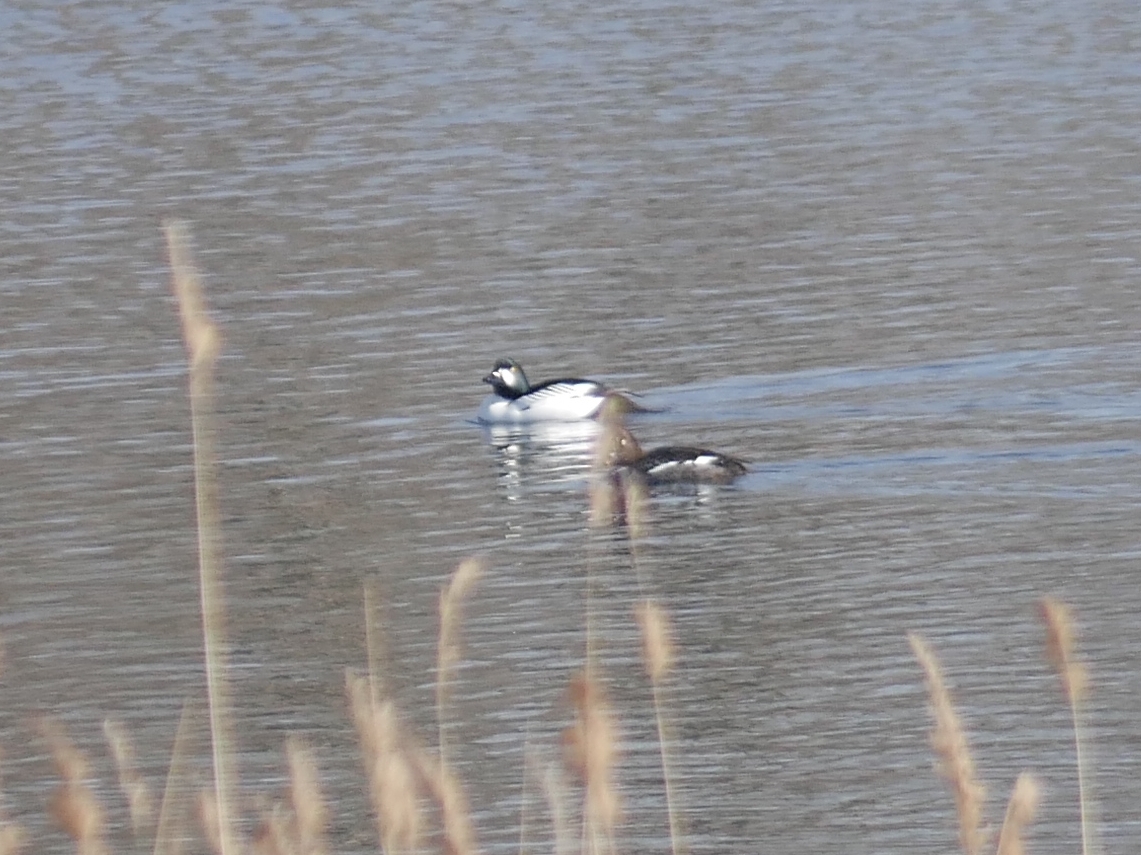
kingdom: Animalia
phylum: Chordata
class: Aves
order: Anseriformes
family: Anatidae
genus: Bucephala
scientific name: Bucephala clangula
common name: Common goldeneye
